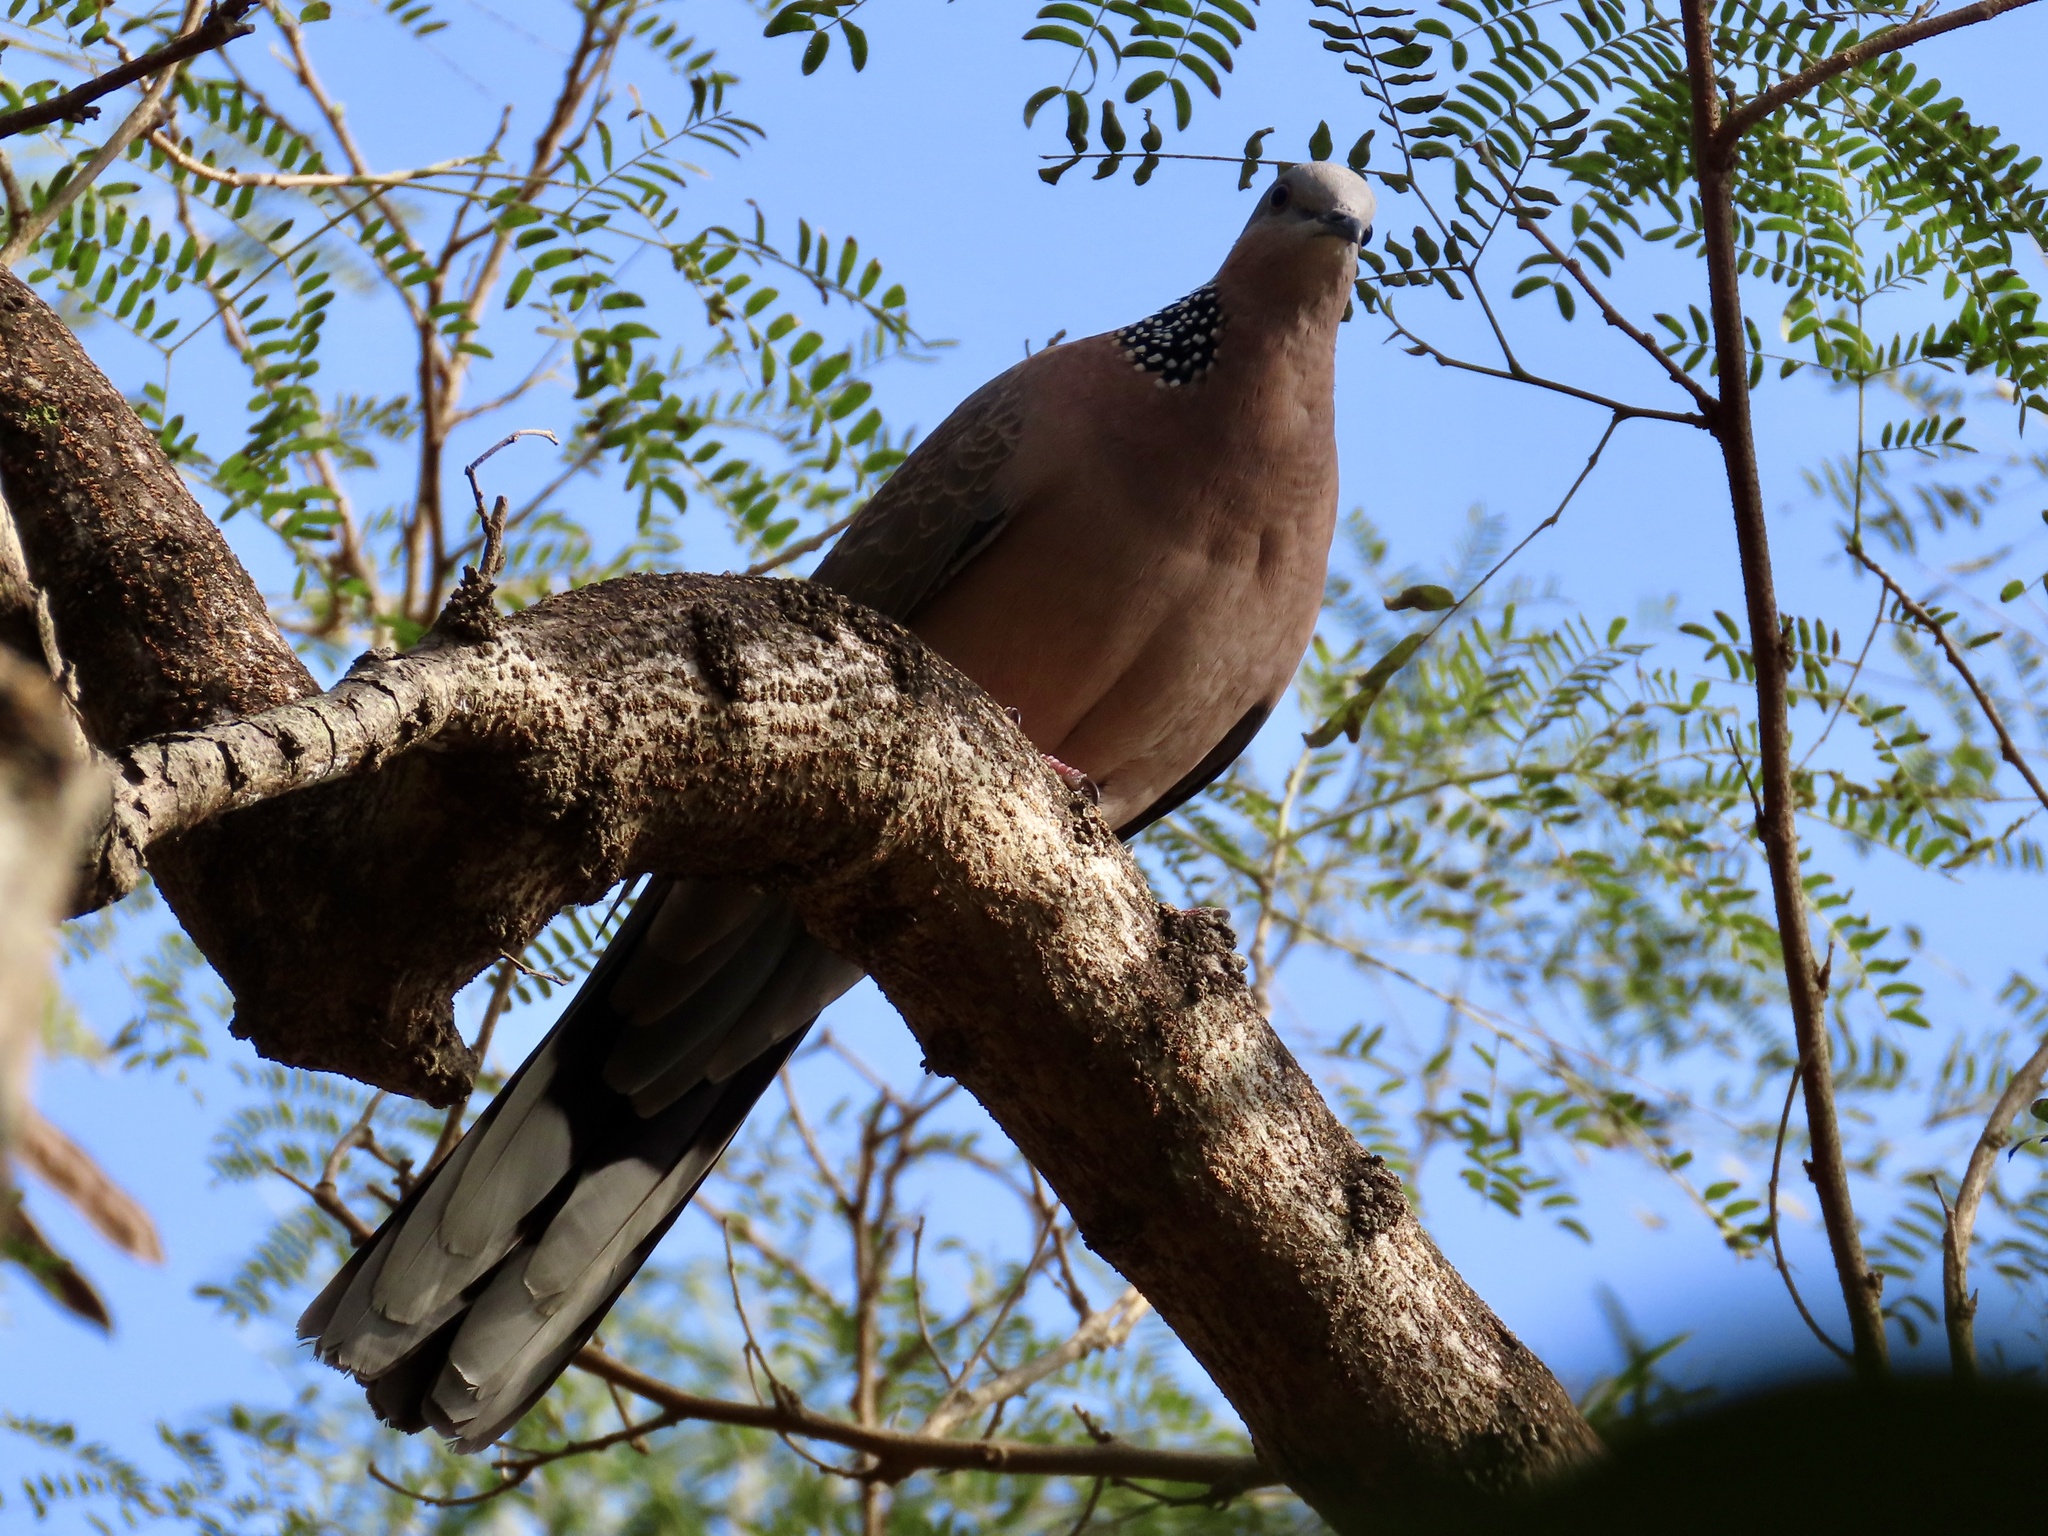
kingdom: Animalia
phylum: Chordata
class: Aves
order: Columbiformes
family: Columbidae
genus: Spilopelia
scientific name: Spilopelia chinensis
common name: Spotted dove
